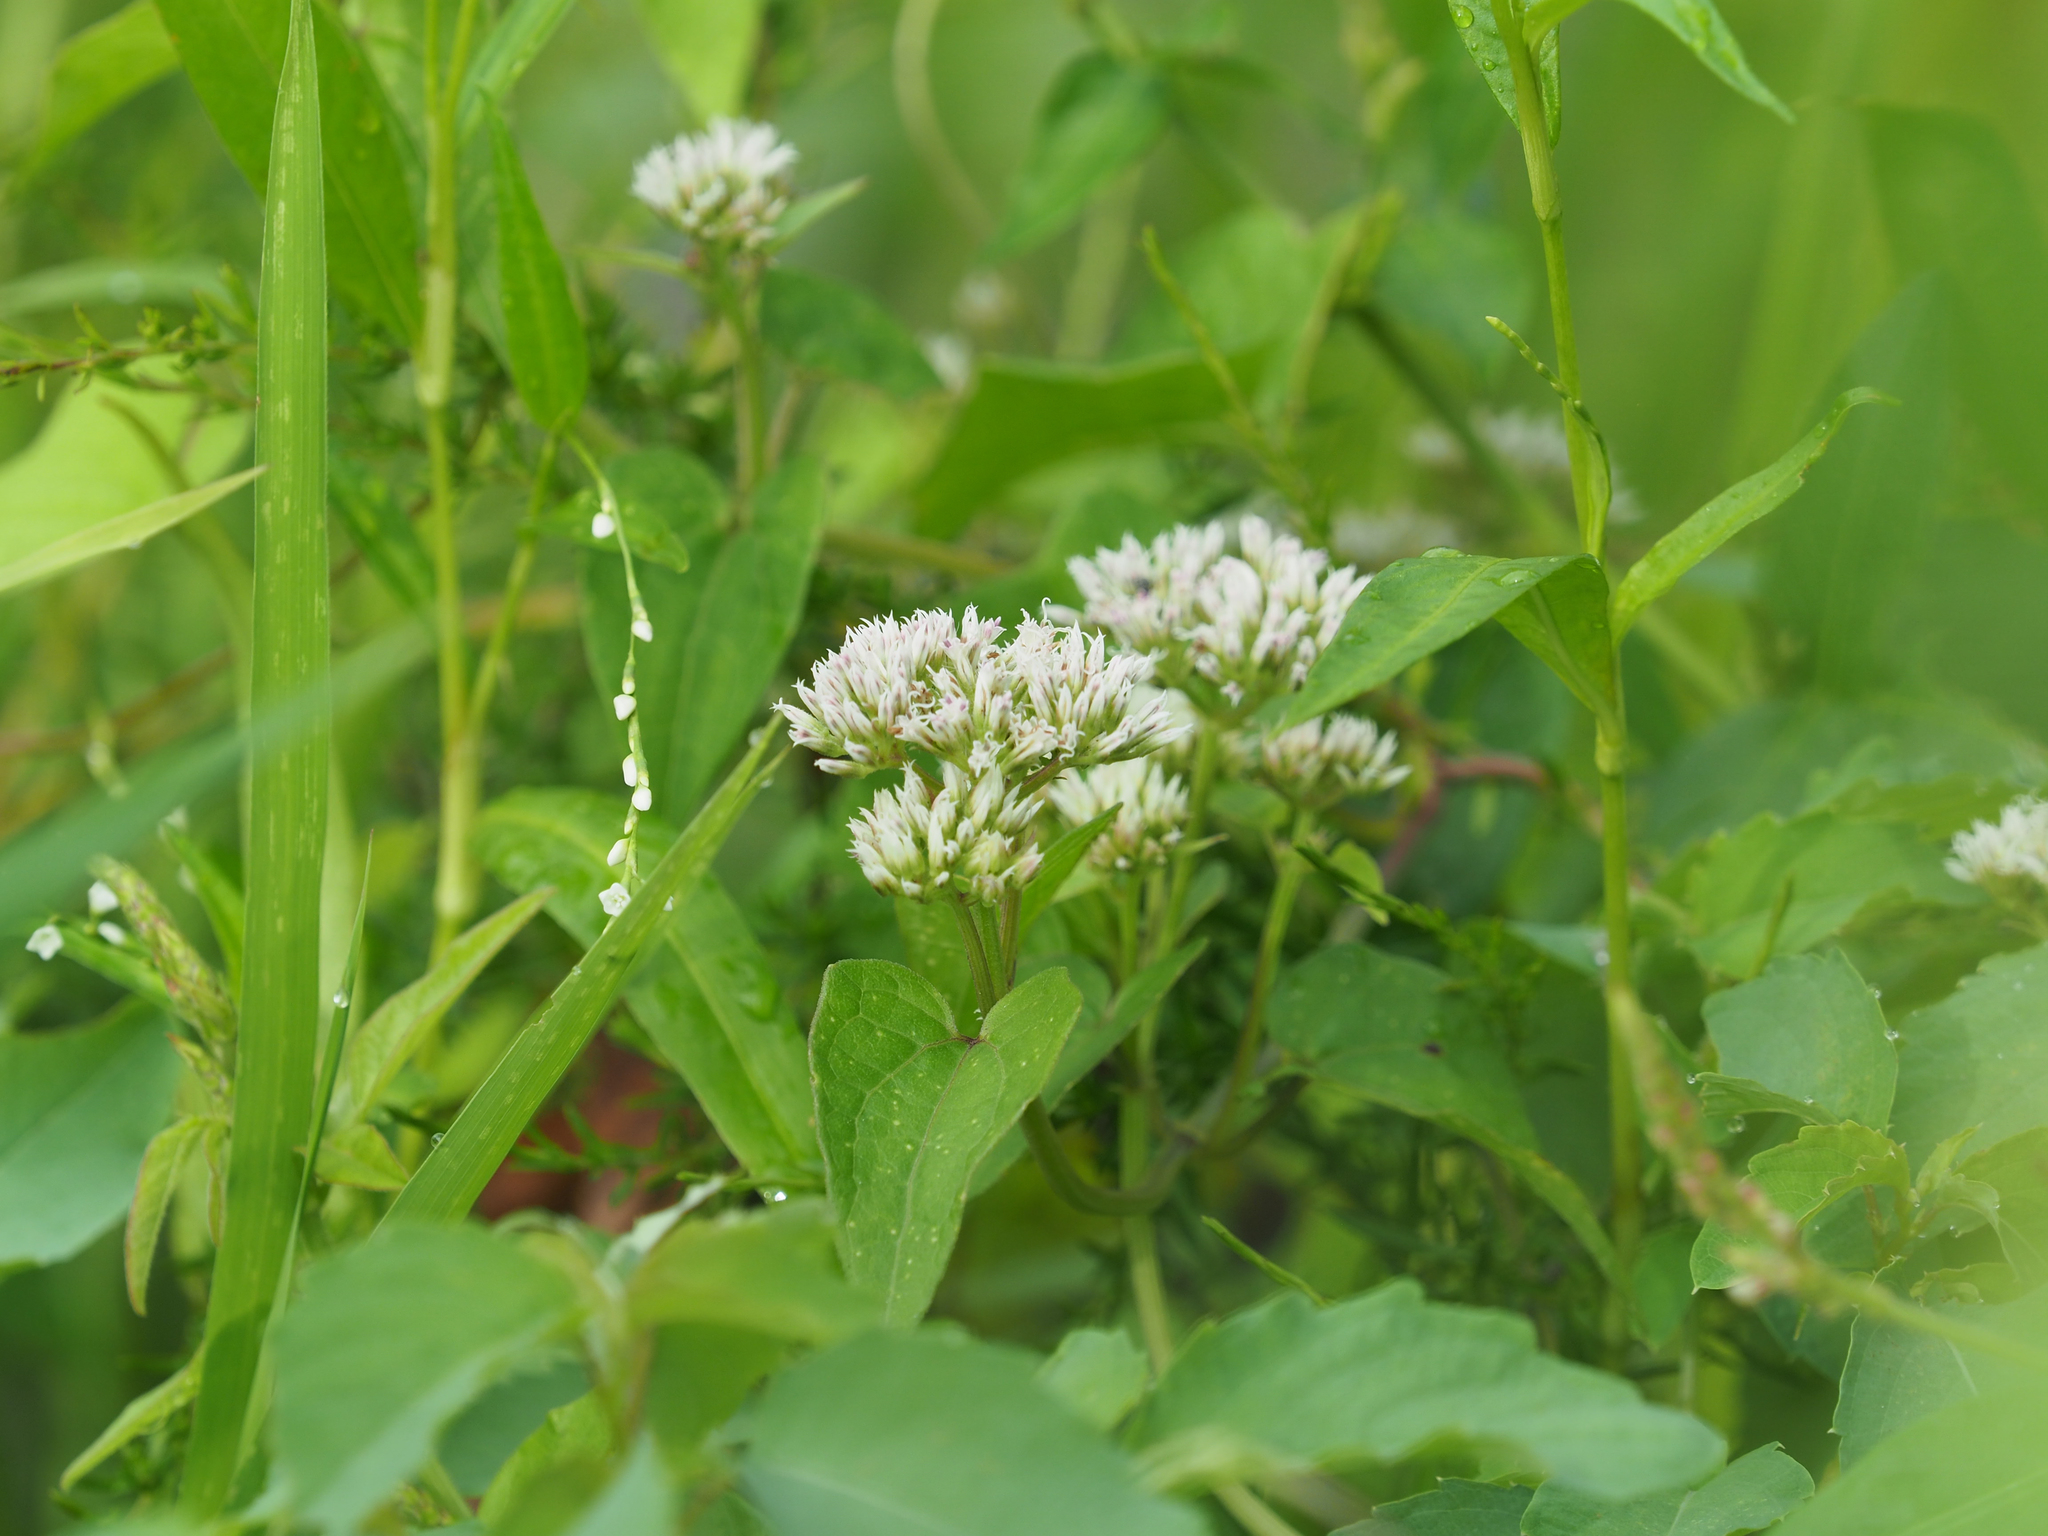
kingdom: Plantae
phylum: Tracheophyta
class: Magnoliopsida
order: Asterales
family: Asteraceae
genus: Mikania
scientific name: Mikania scandens
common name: Climbing hempvine
